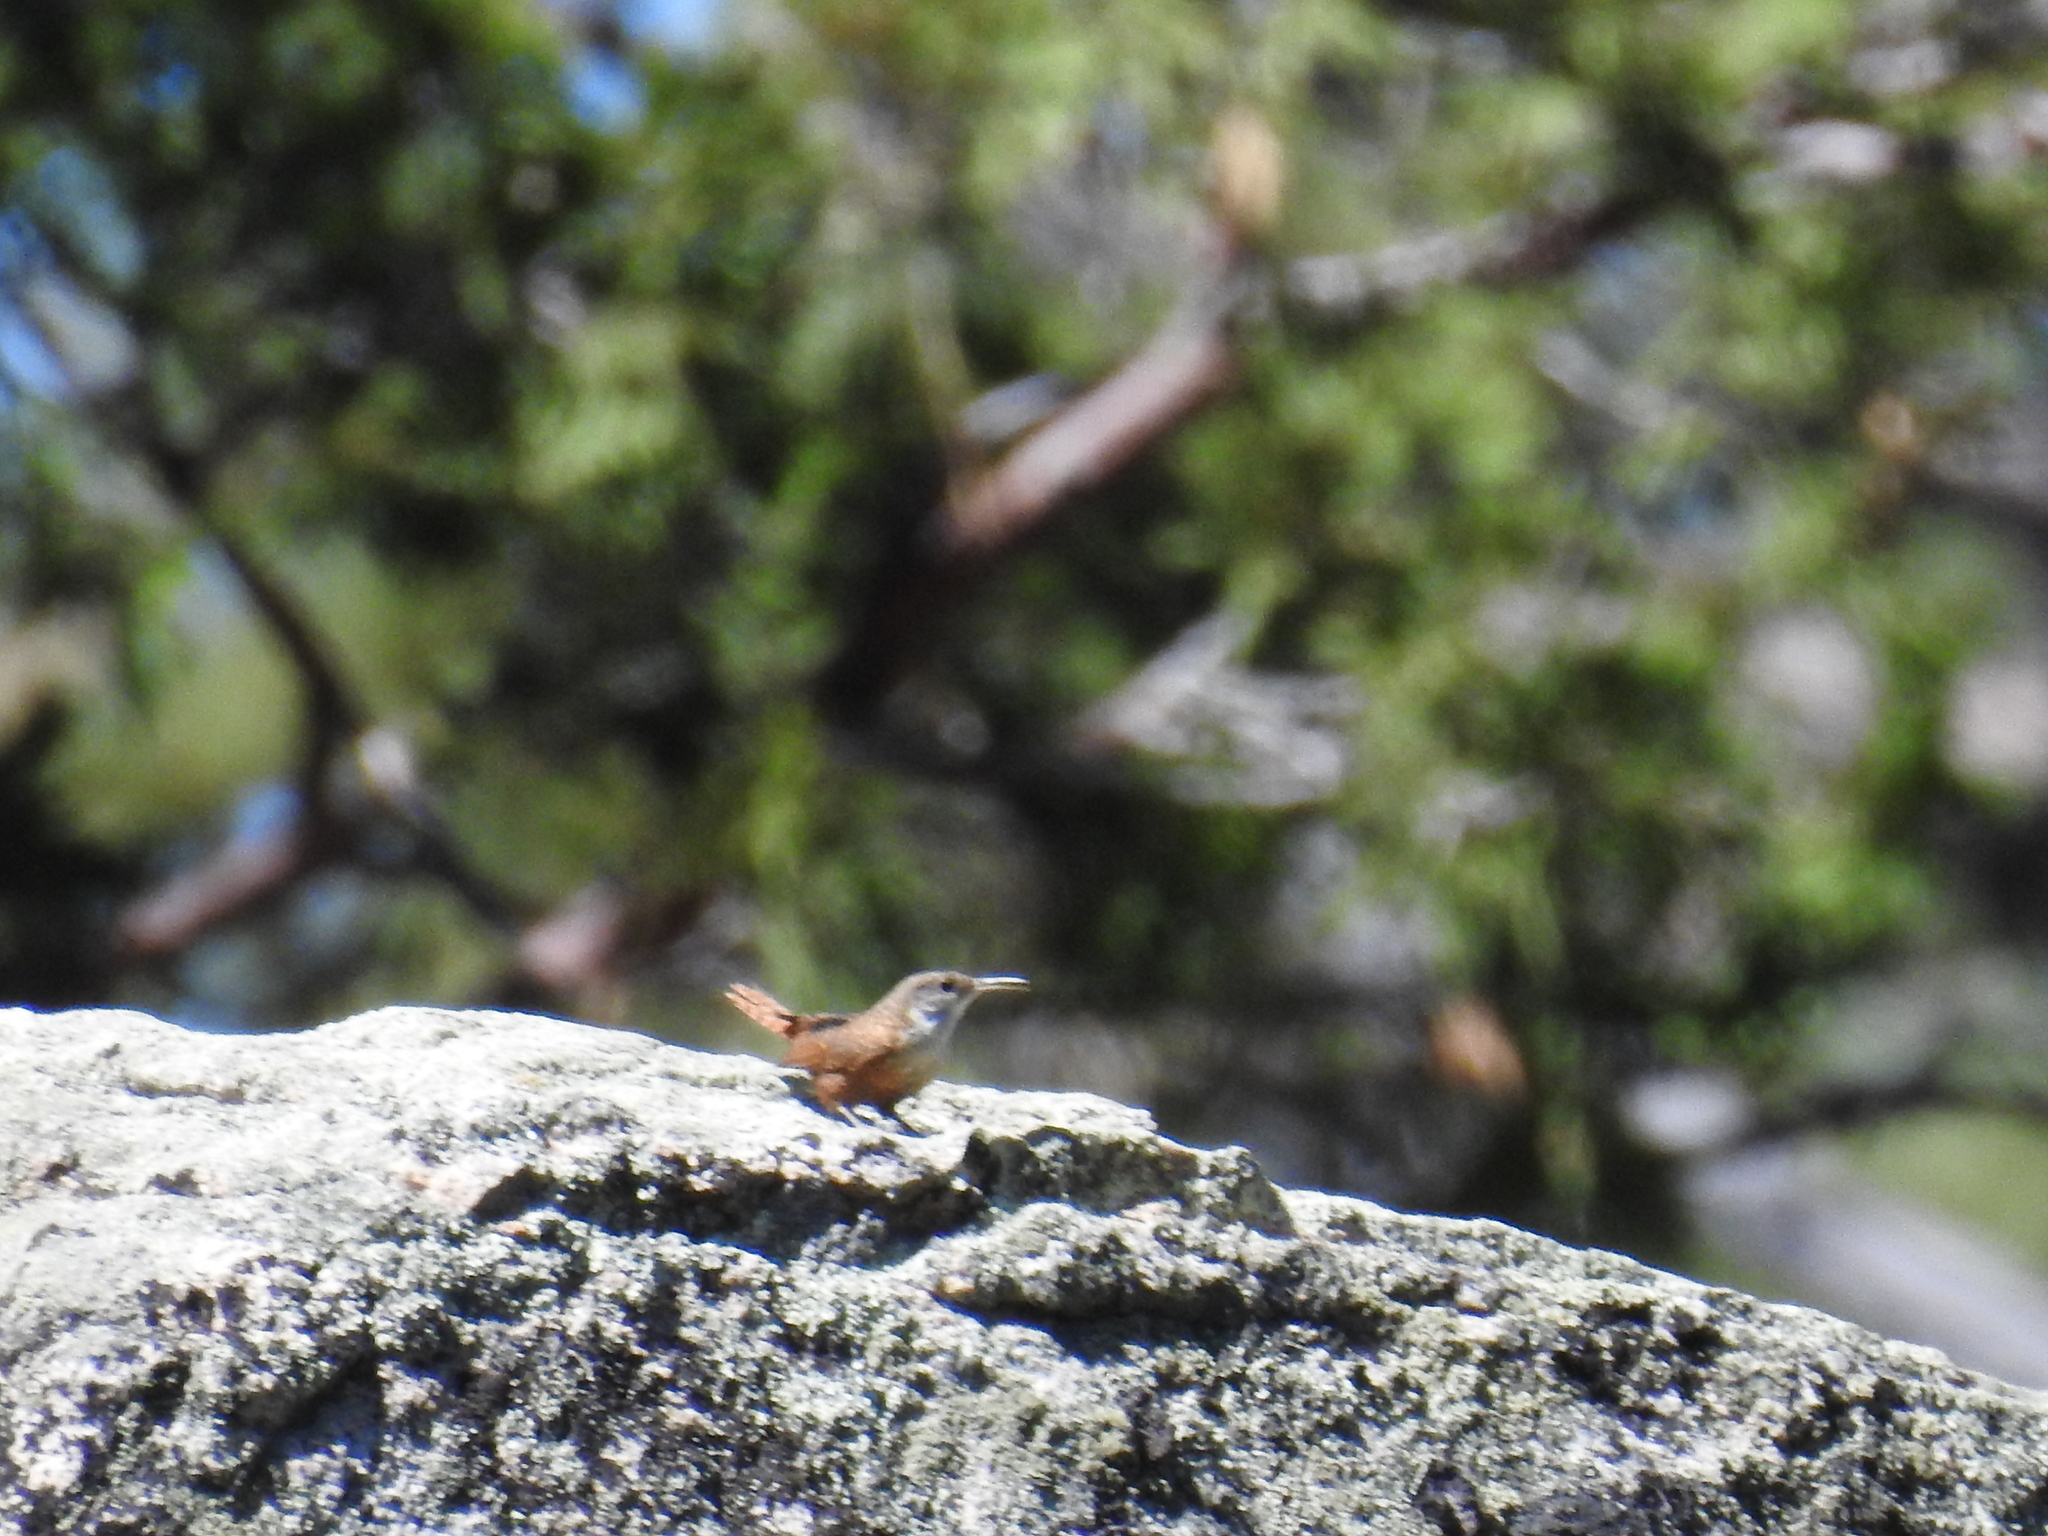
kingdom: Animalia
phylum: Chordata
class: Aves
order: Passeriformes
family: Troglodytidae
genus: Catherpes
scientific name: Catherpes mexicanus
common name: Canyon wren
